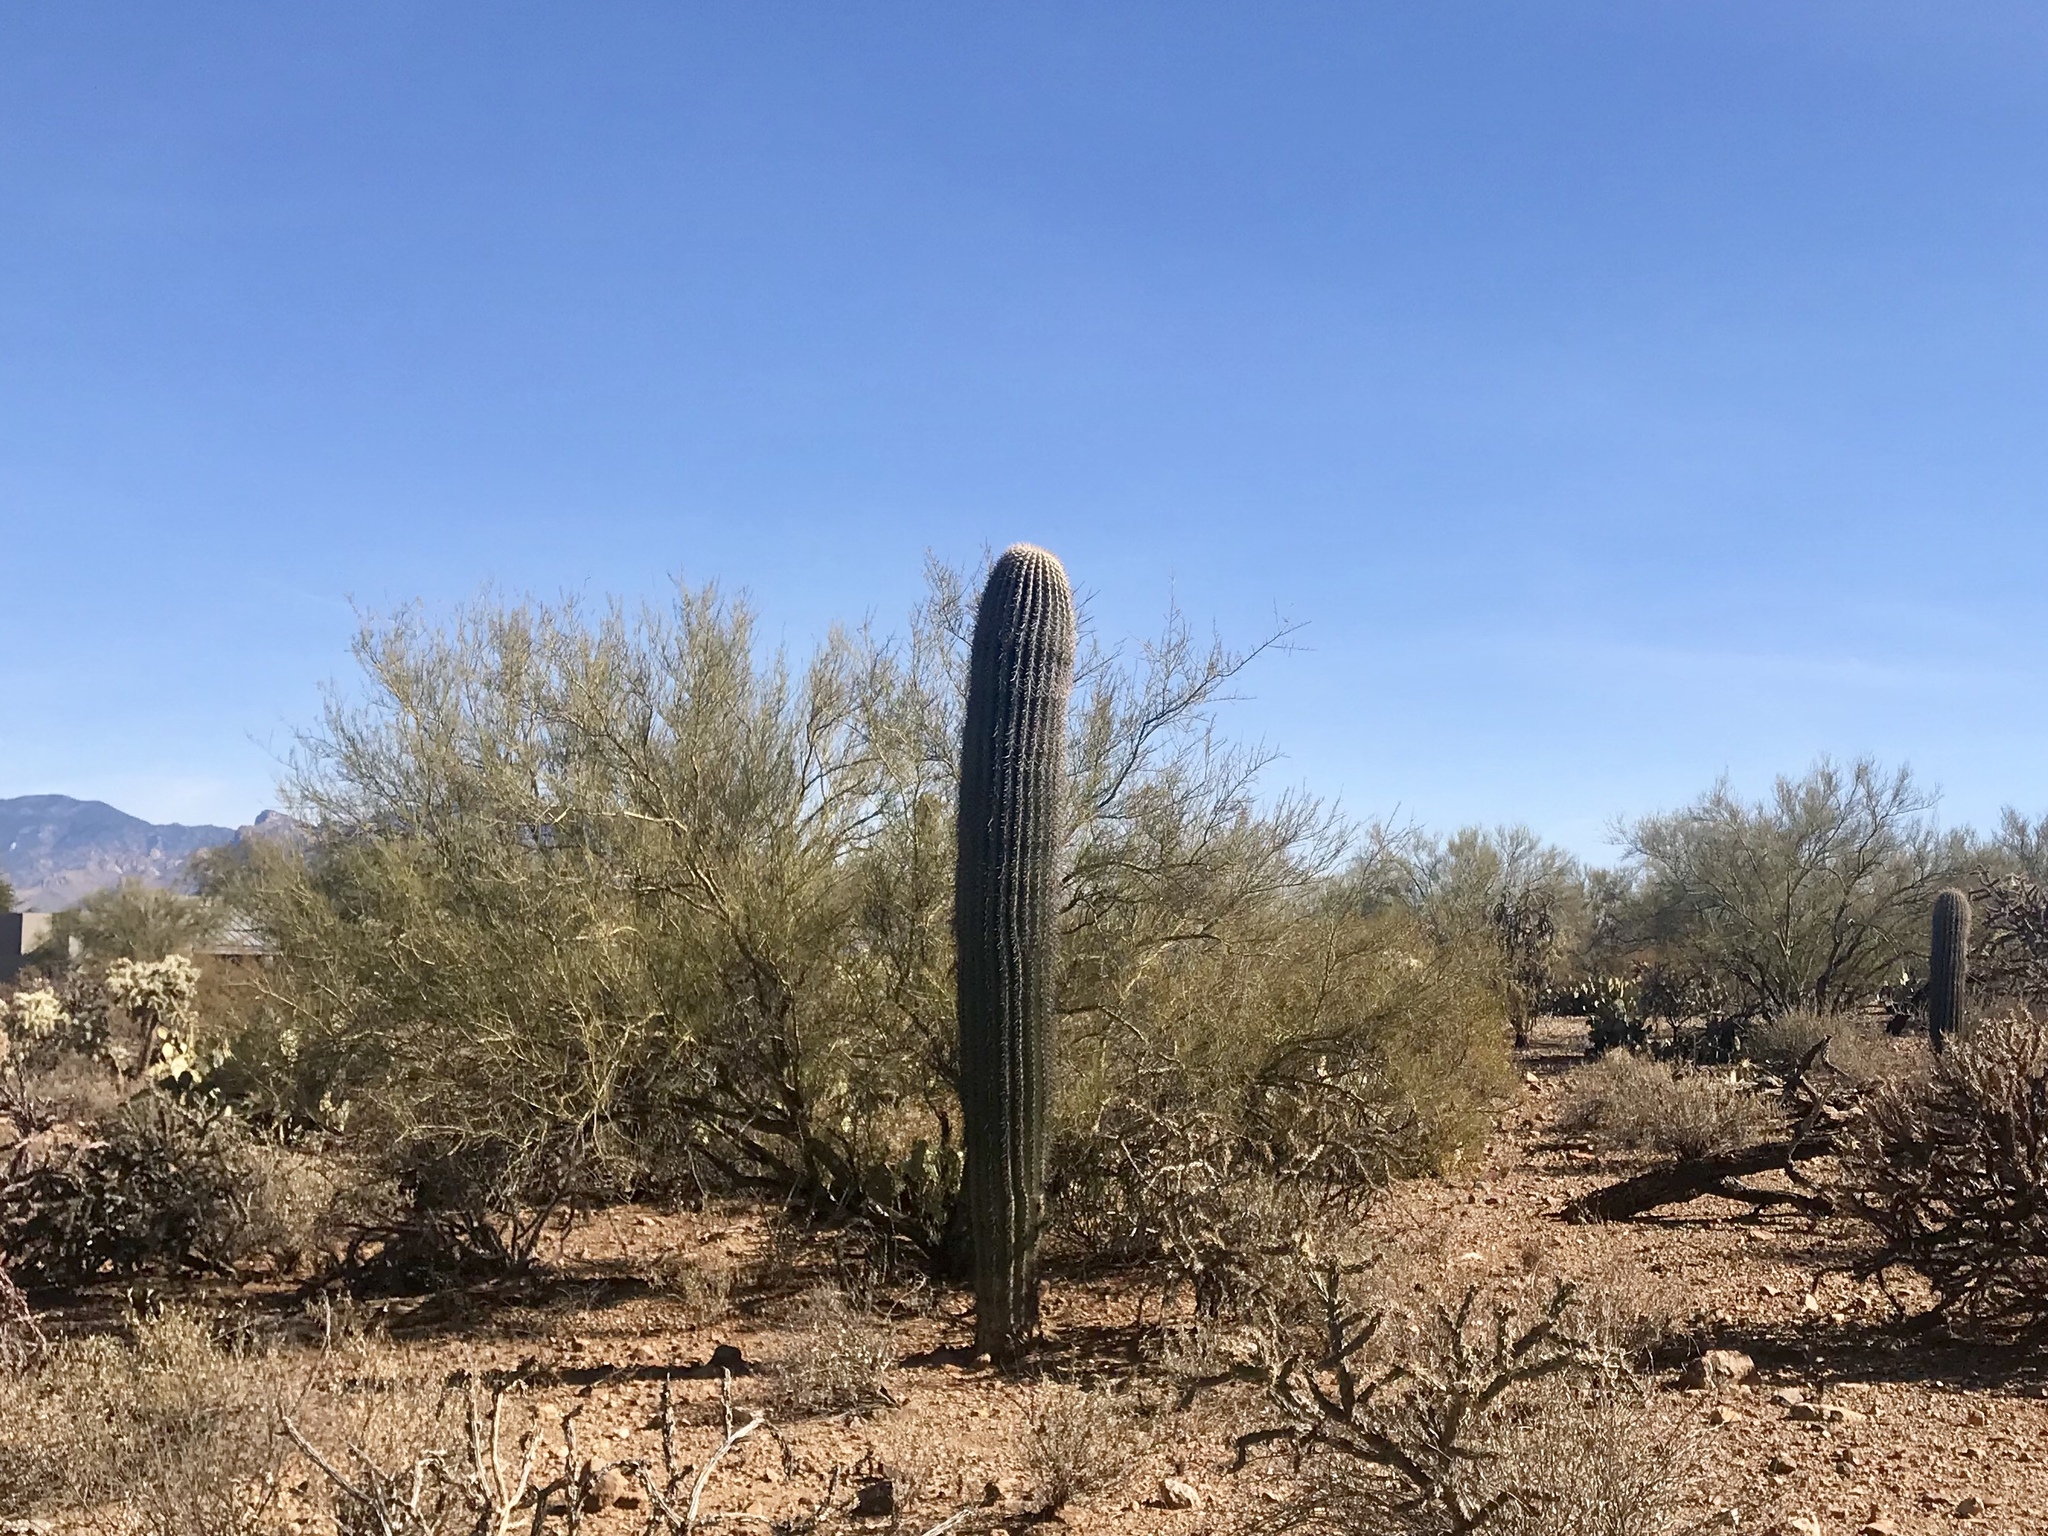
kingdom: Plantae
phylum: Tracheophyta
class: Magnoliopsida
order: Caryophyllales
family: Cactaceae
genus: Carnegiea
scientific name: Carnegiea gigantea
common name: Saguaro
